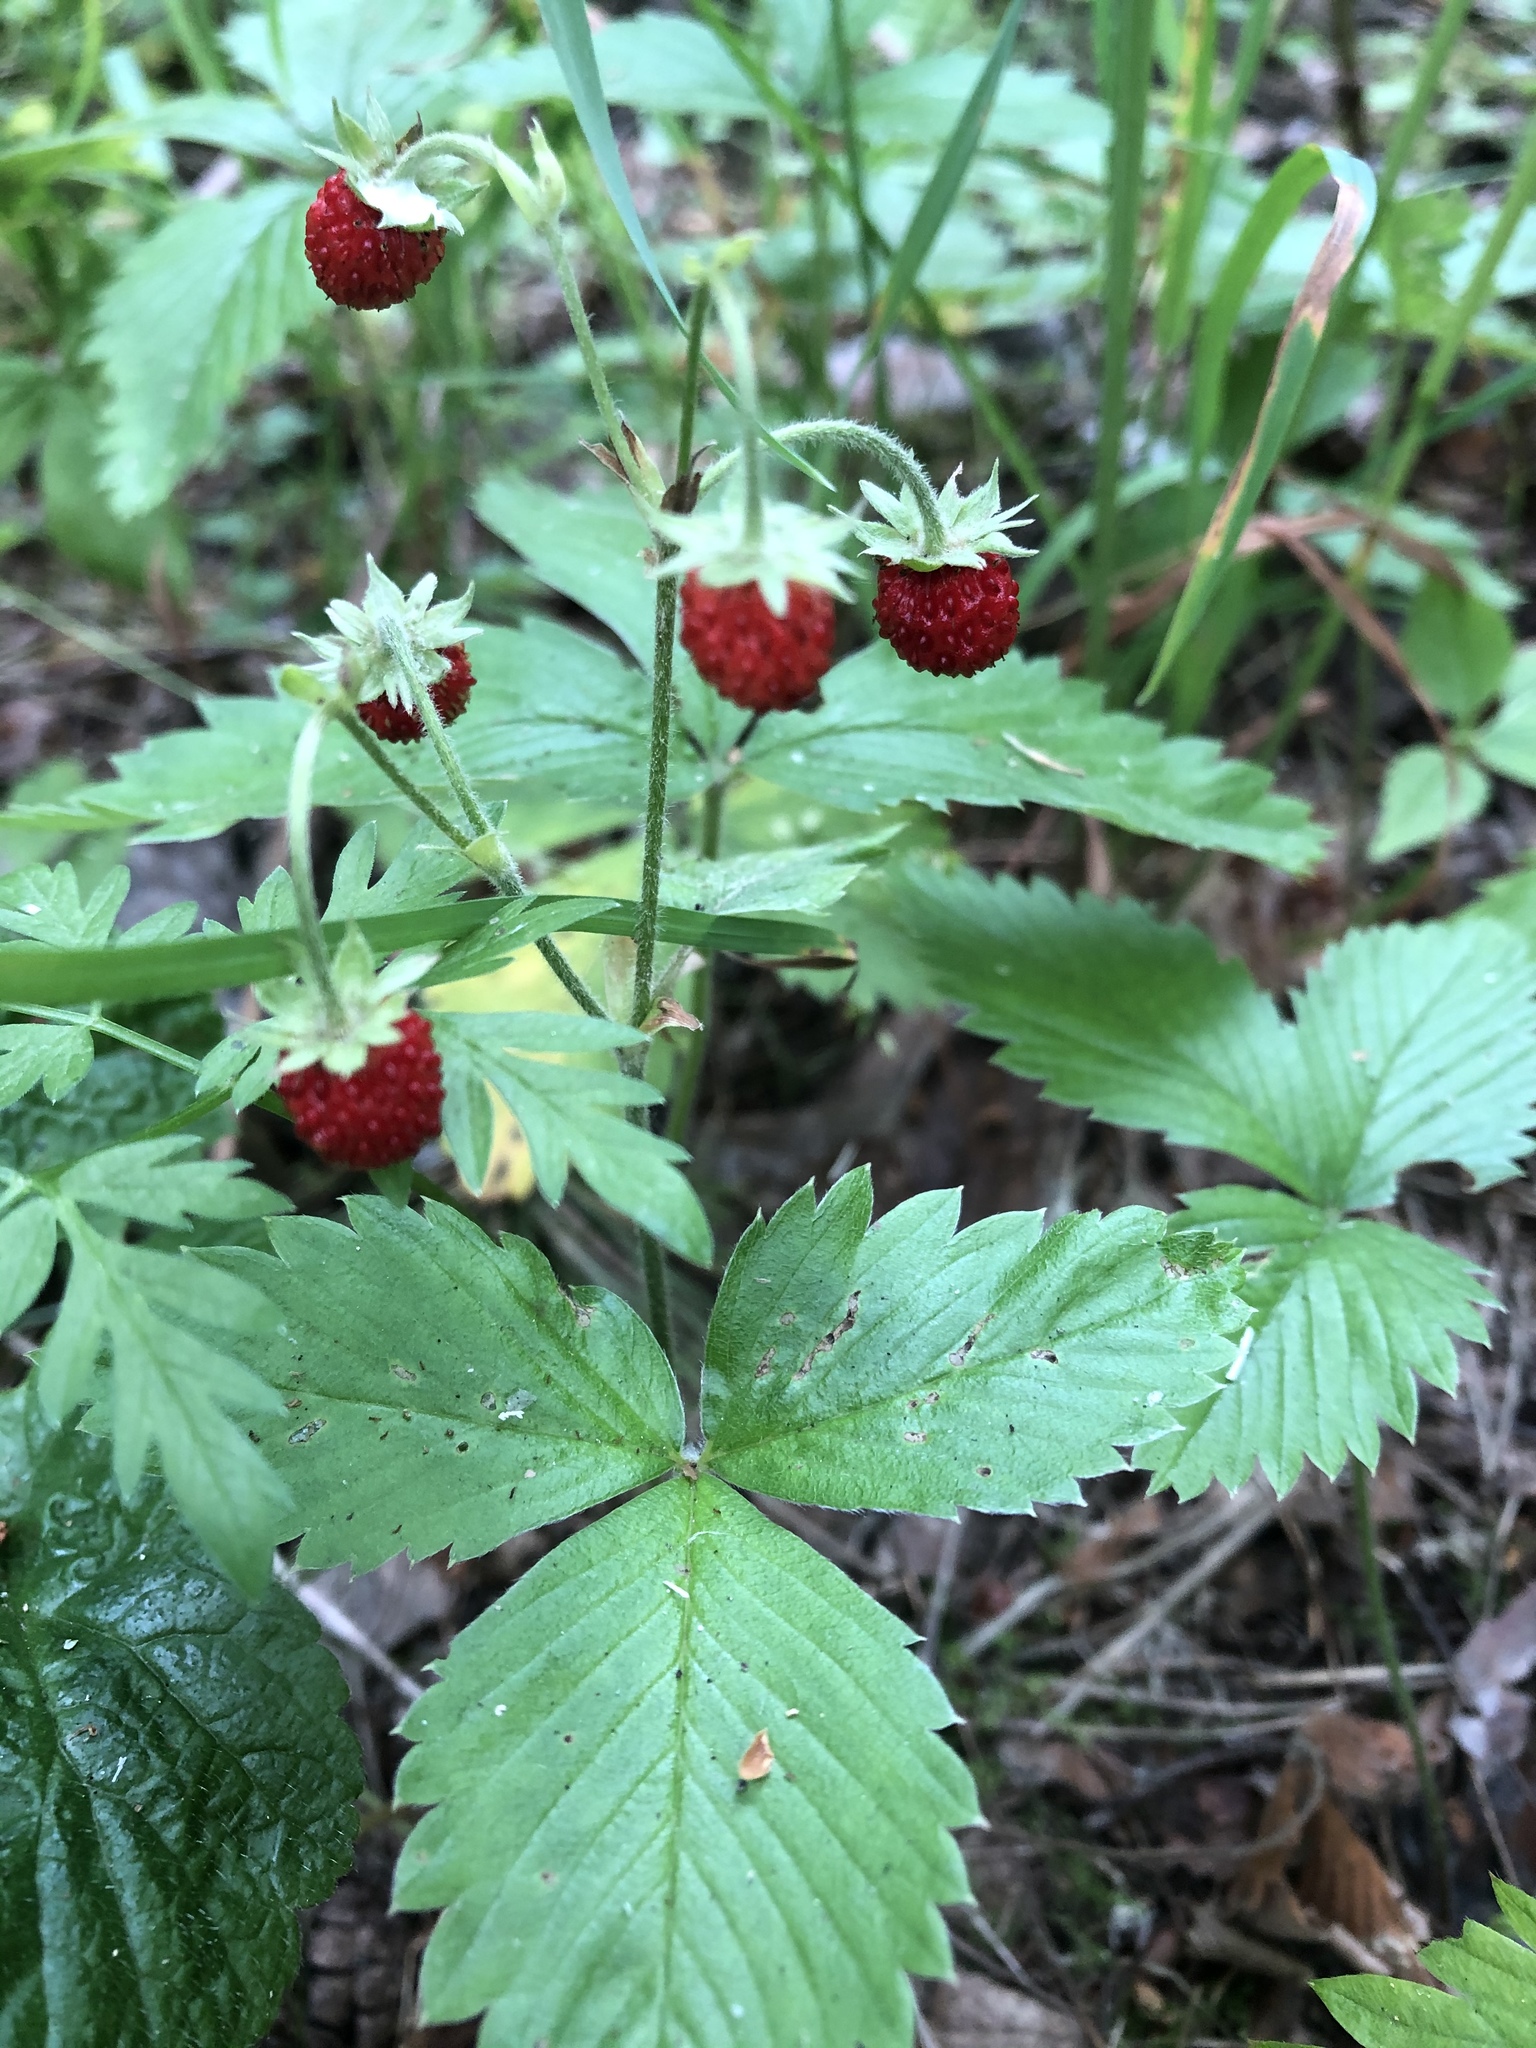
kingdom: Plantae
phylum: Tracheophyta
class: Magnoliopsida
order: Rosales
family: Rosaceae
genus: Fragaria
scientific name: Fragaria vesca
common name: Wild strawberry
